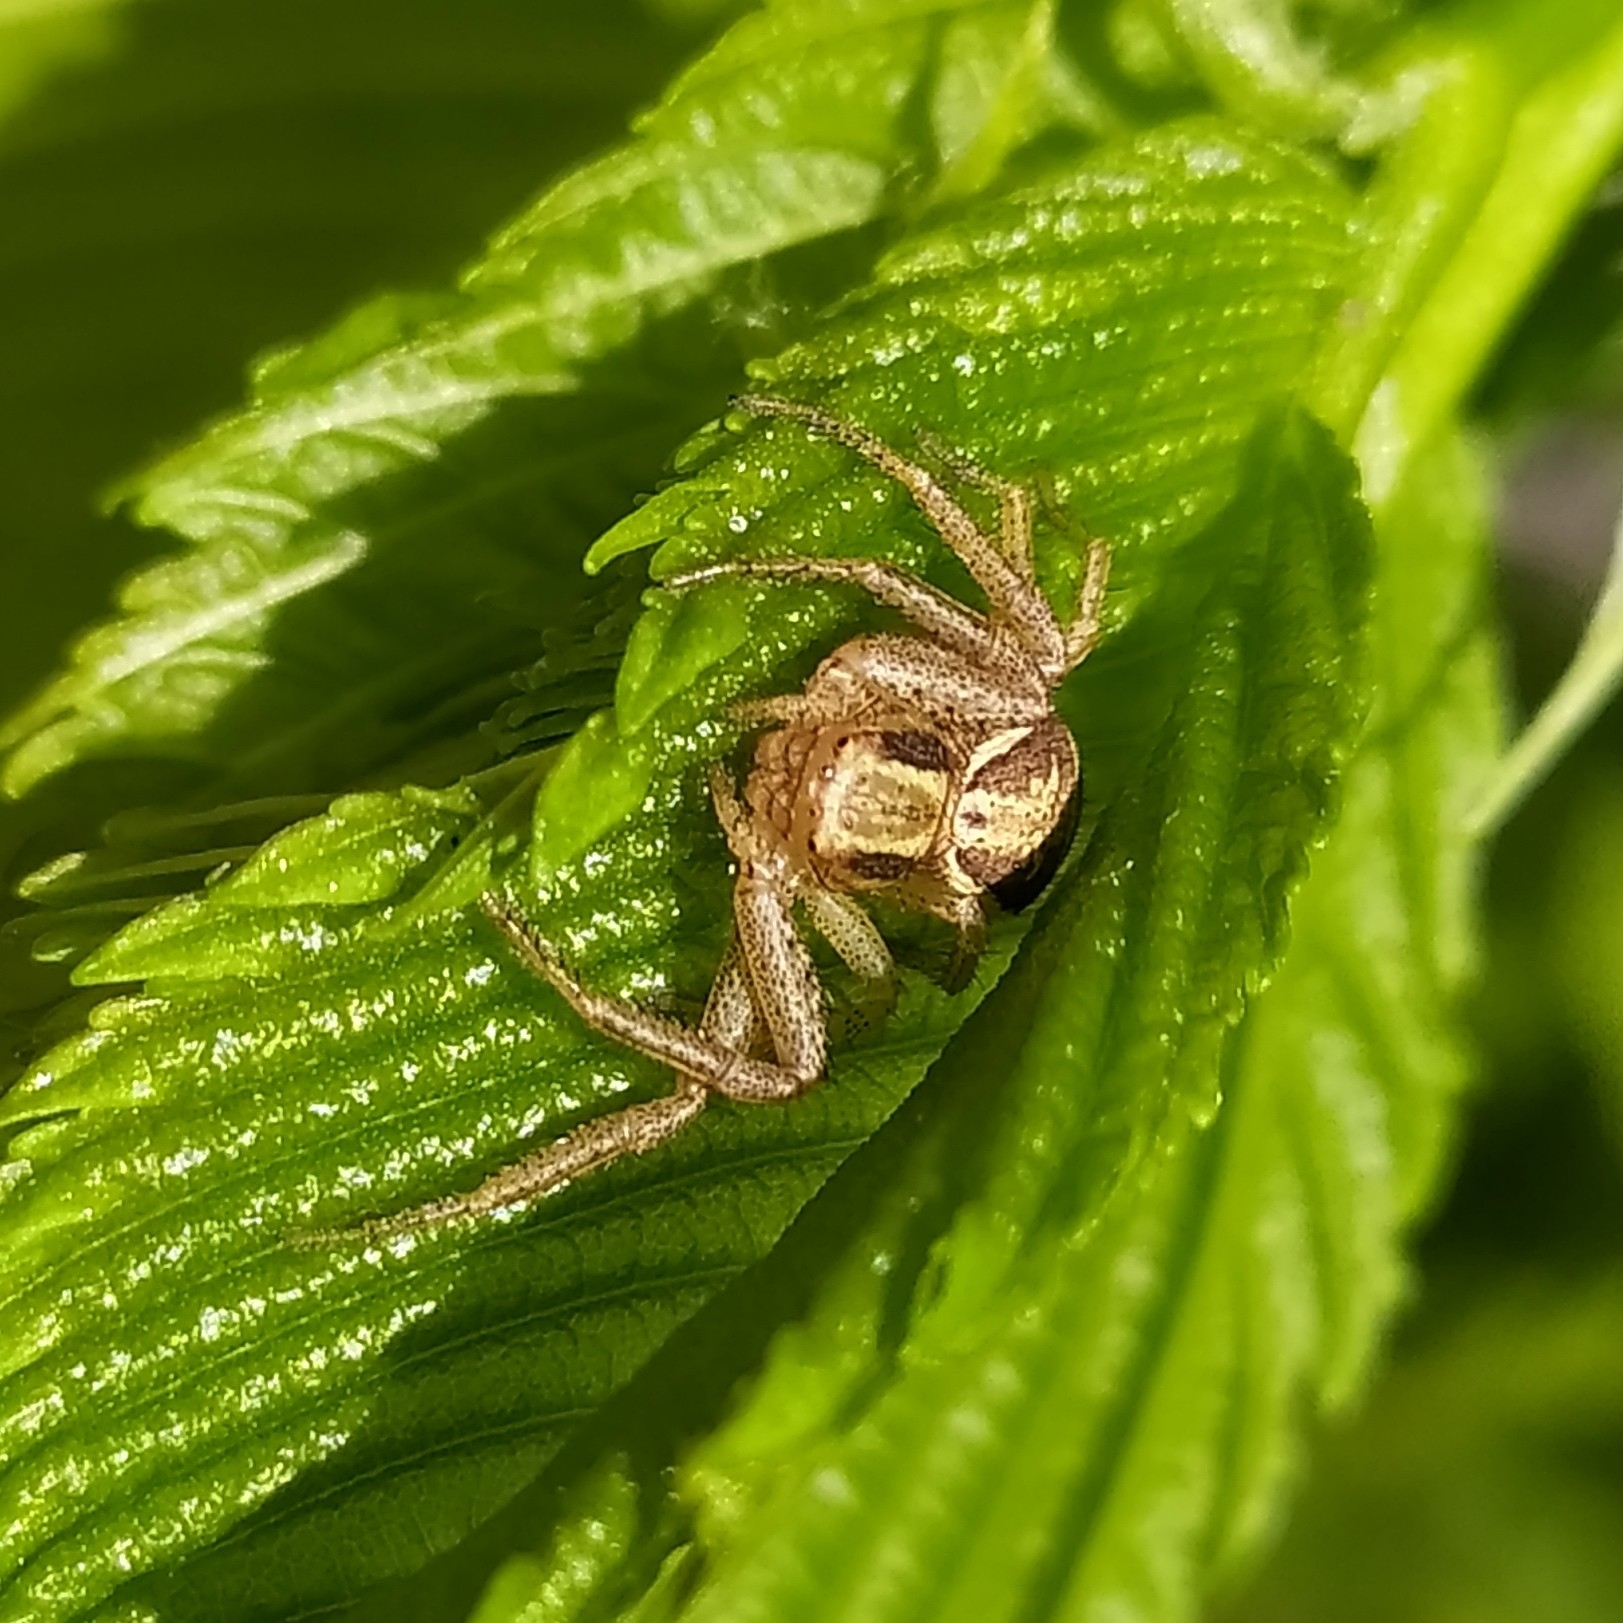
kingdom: Animalia
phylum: Arthropoda
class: Arachnida
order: Araneae
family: Thomisidae
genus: Xysticus
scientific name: Xysticus ulmi
